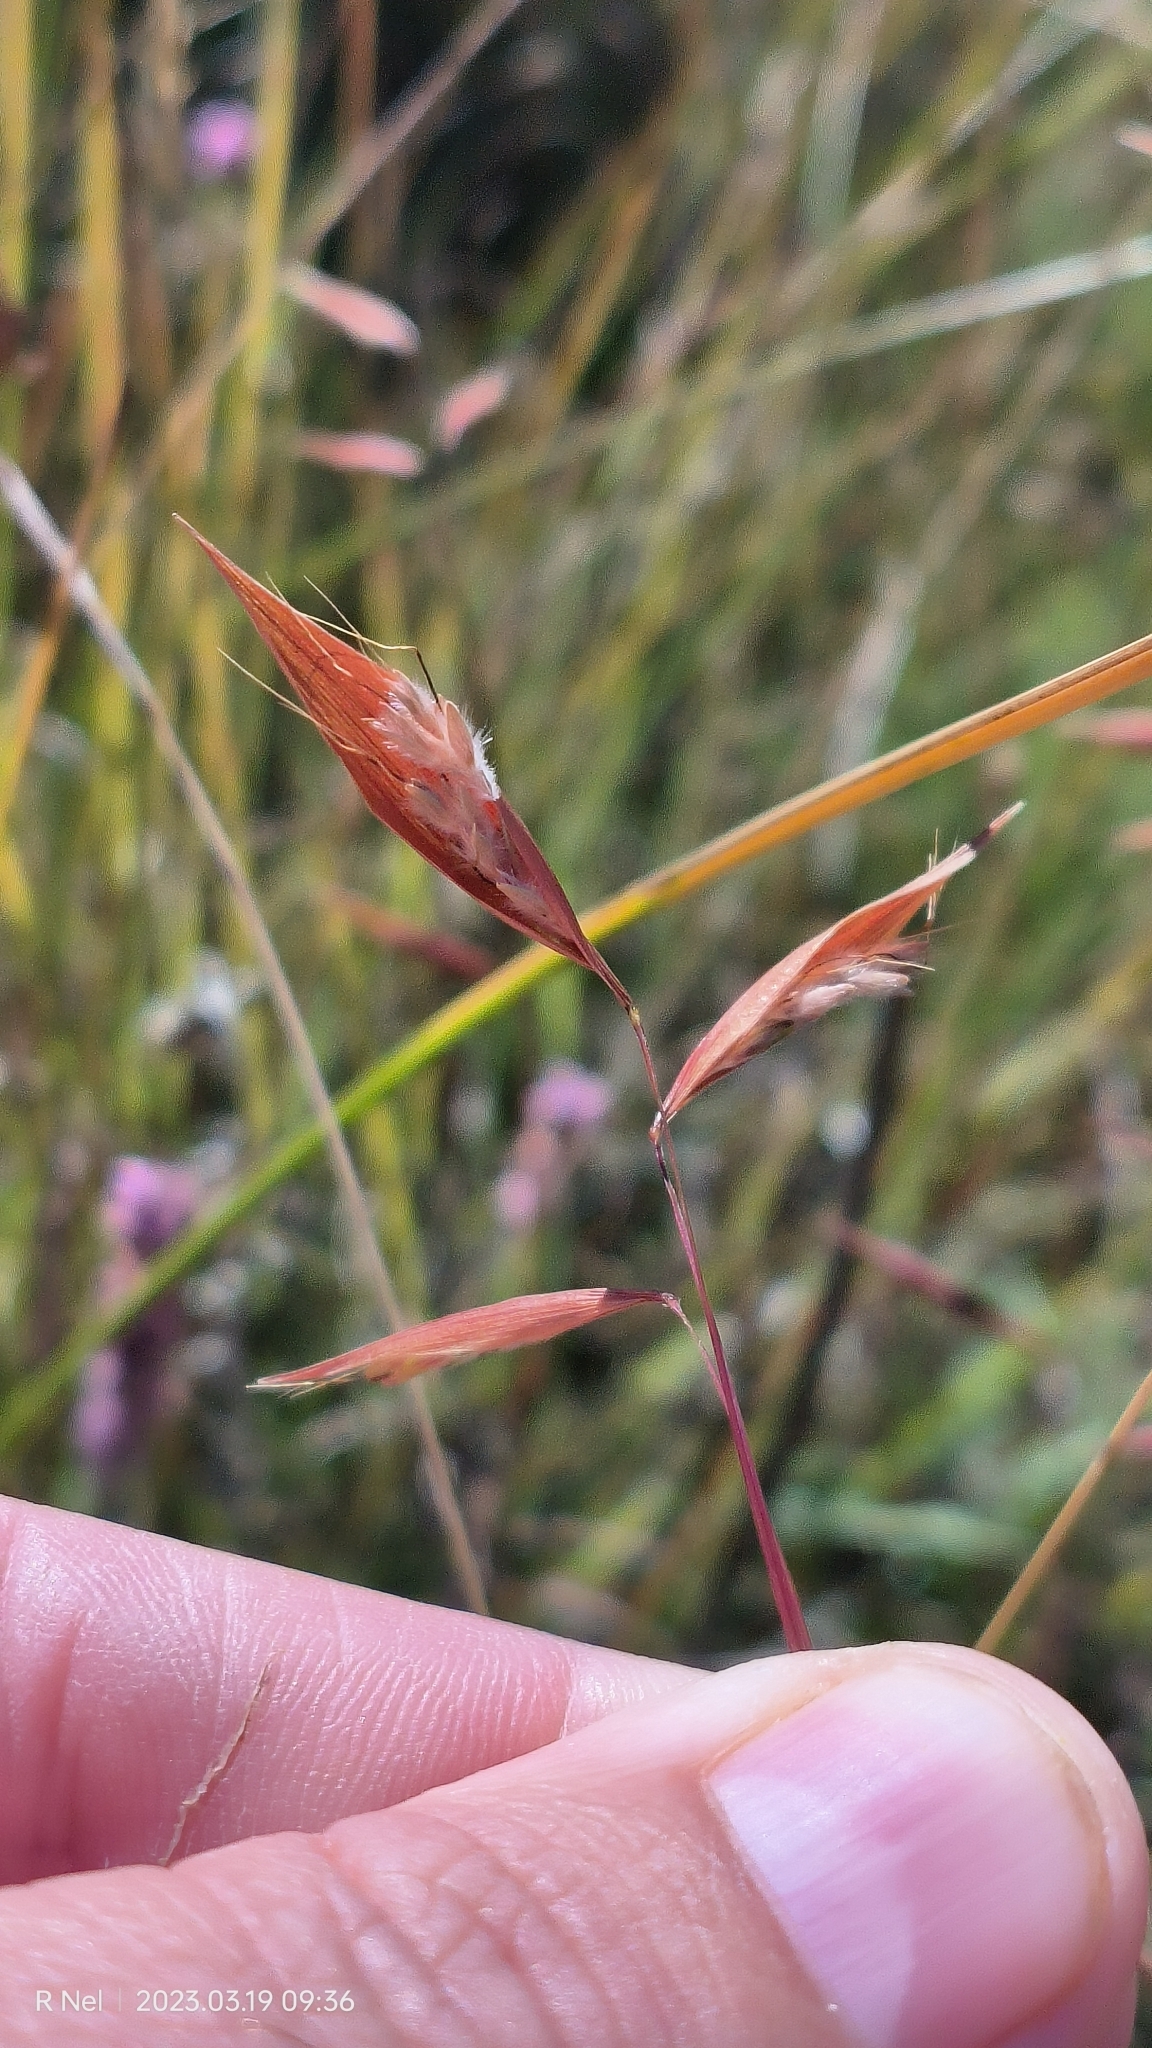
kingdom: Plantae
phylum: Tracheophyta
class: Liliopsida
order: Poales
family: Poaceae
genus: Monocymbium
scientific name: Monocymbium ceresiiforme
